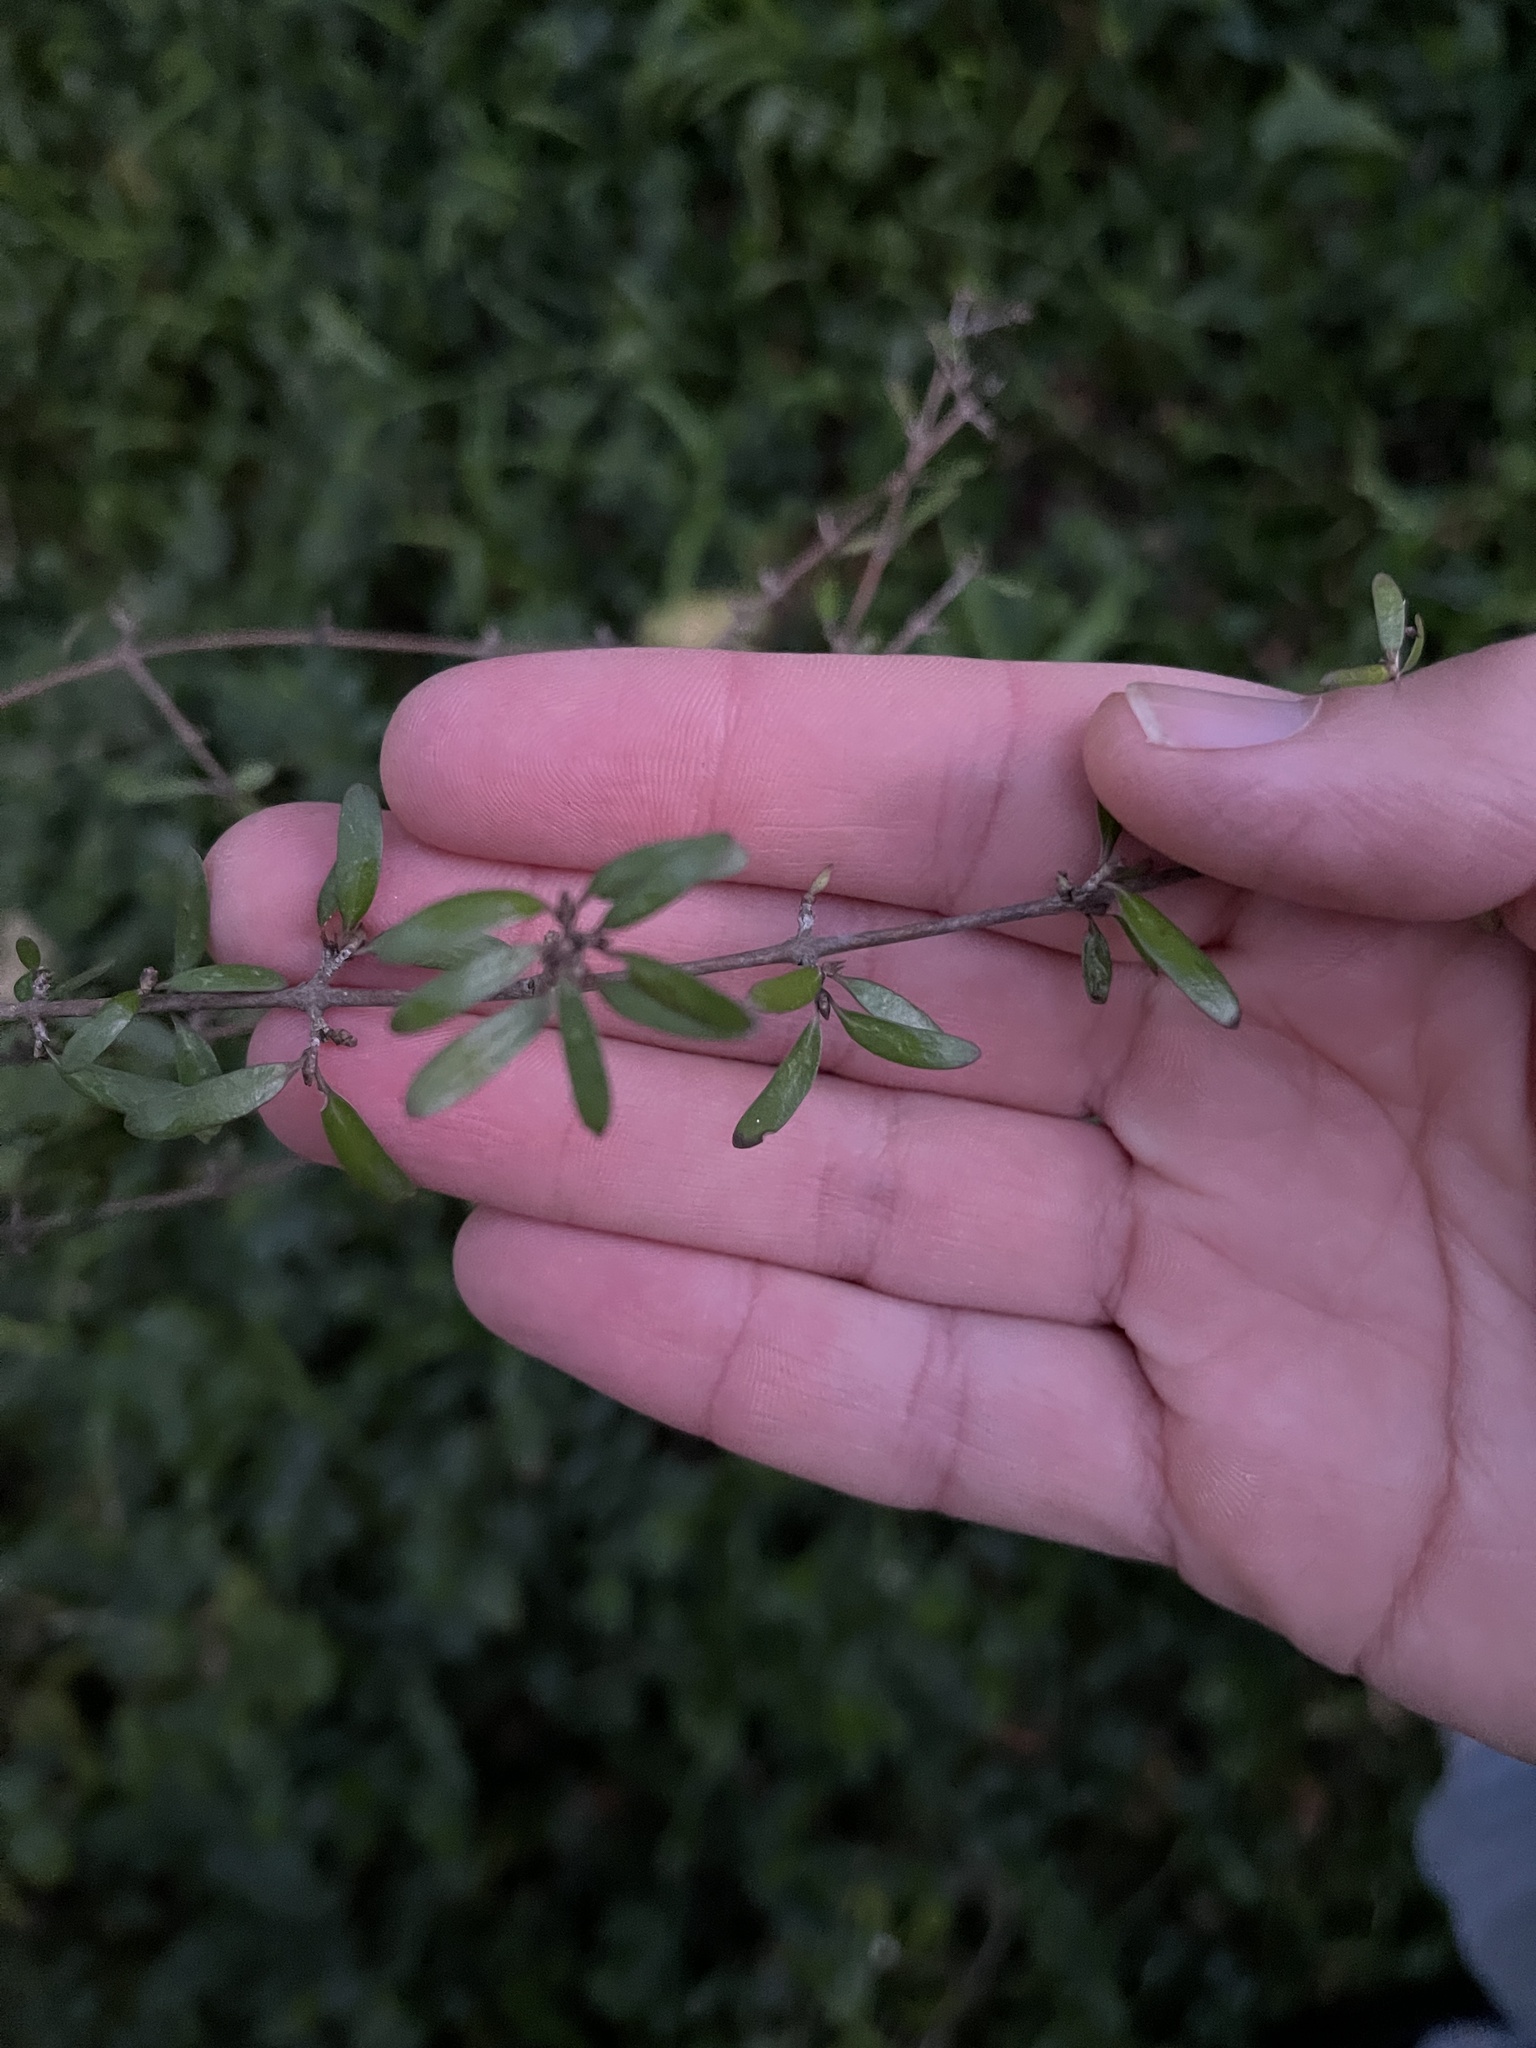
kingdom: Plantae
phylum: Tracheophyta
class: Magnoliopsida
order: Gentianales
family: Rubiaceae
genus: Coprosma
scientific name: Coprosma propinqua
